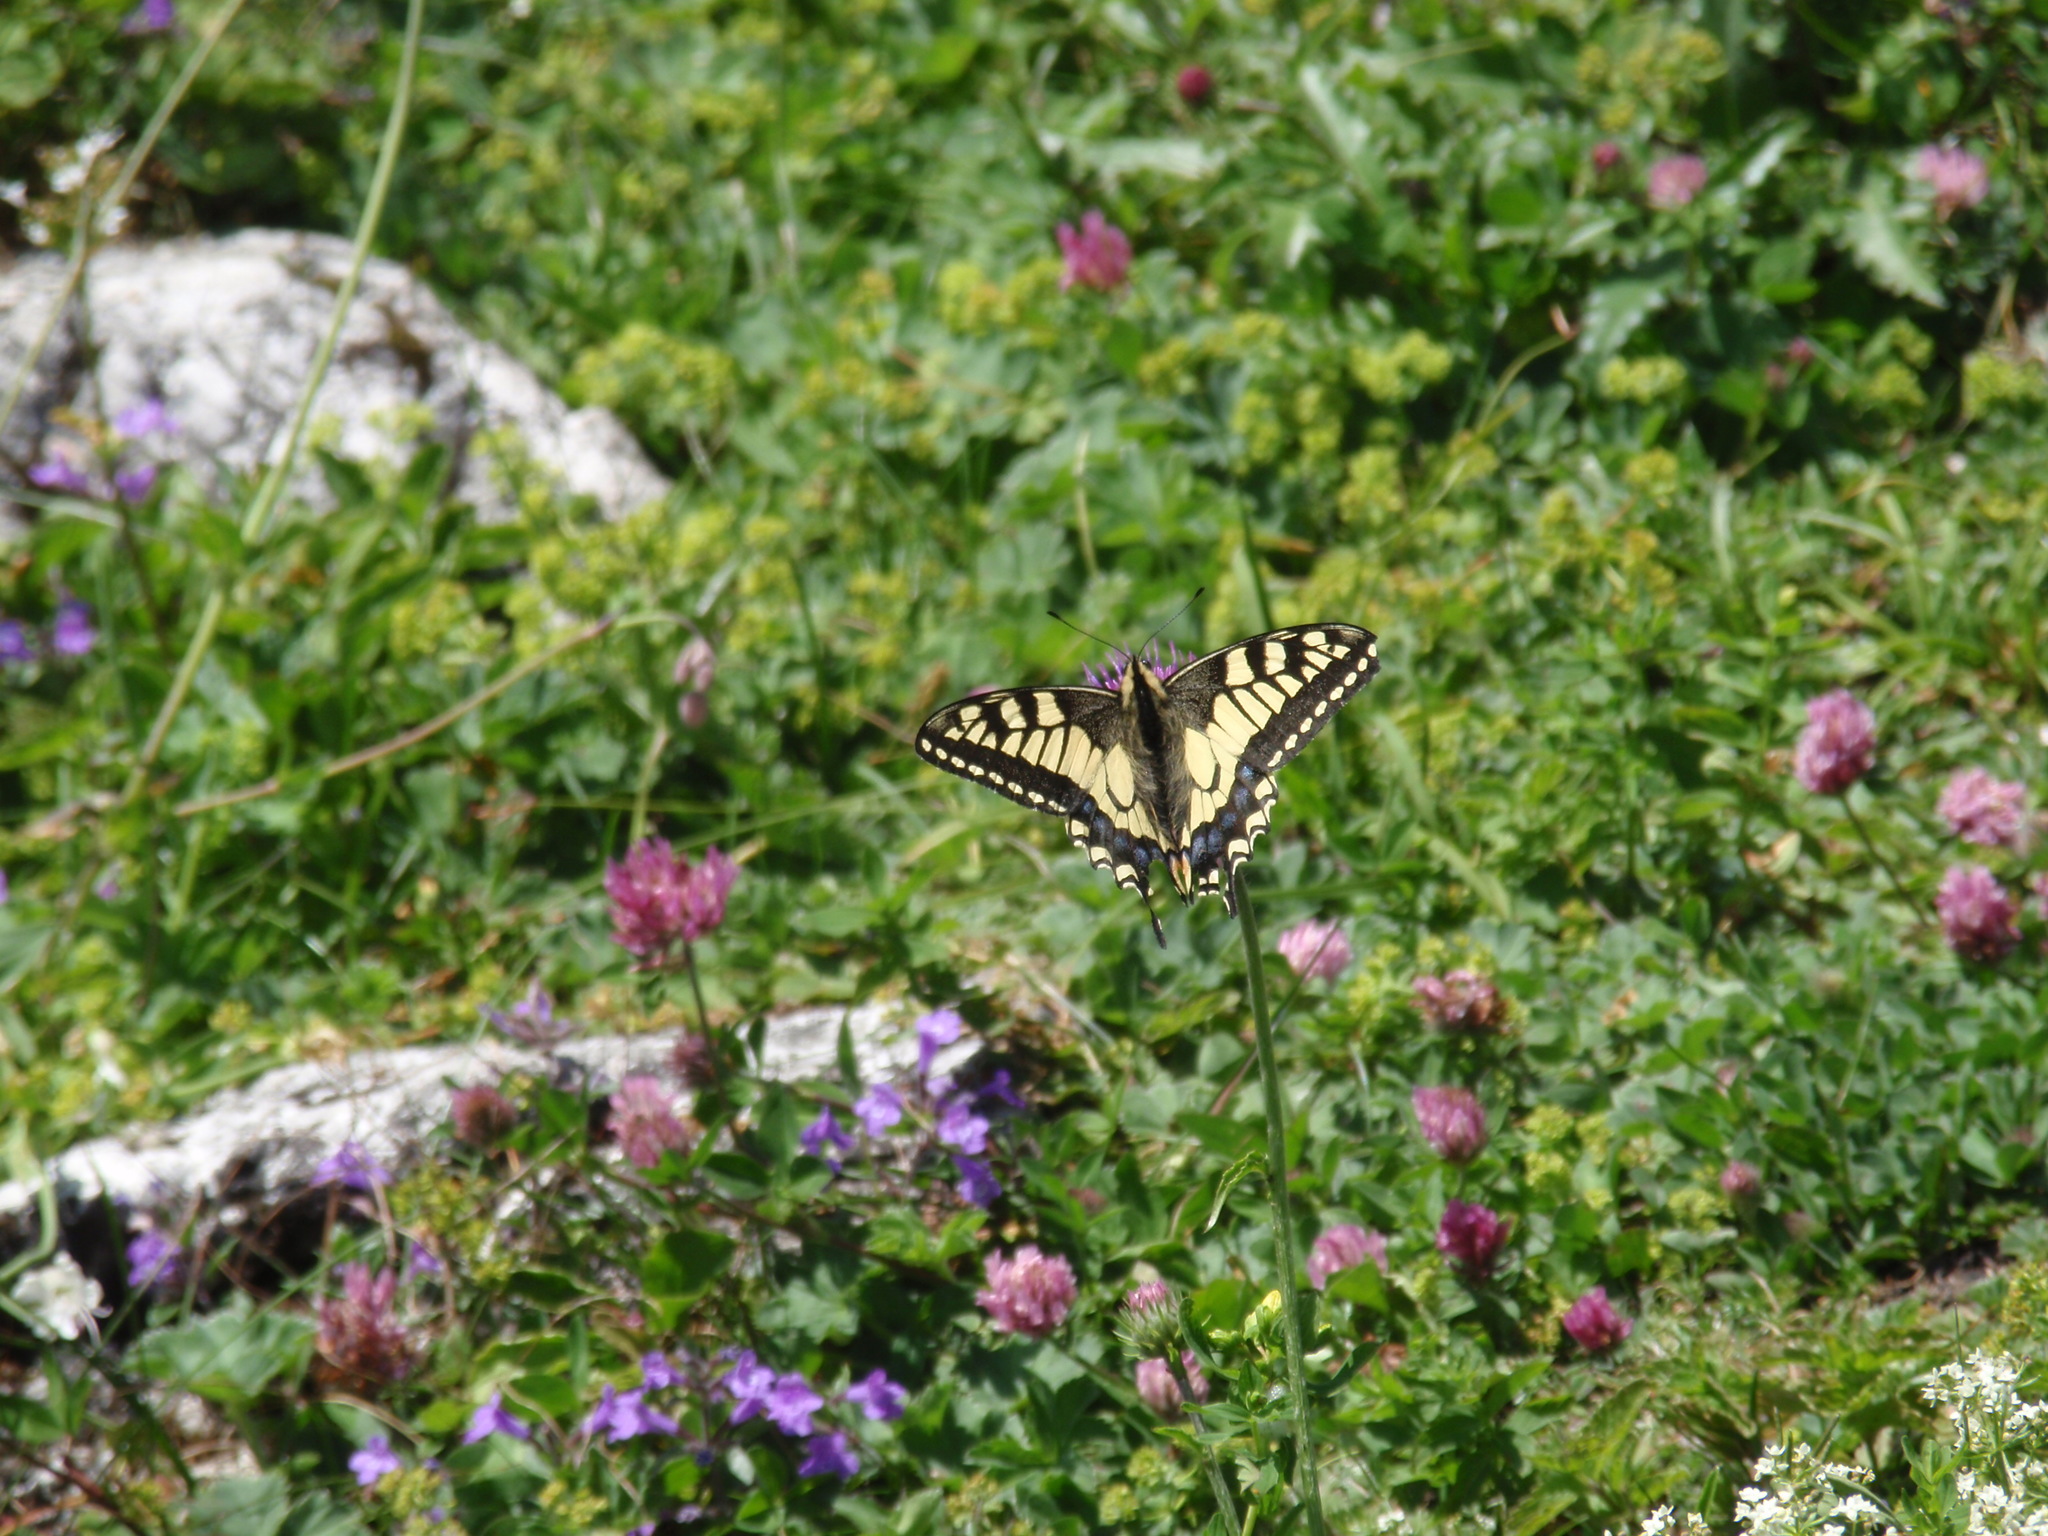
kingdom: Animalia
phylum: Arthropoda
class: Insecta
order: Lepidoptera
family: Papilionidae
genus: Papilio
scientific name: Papilio machaon
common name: Swallowtail
